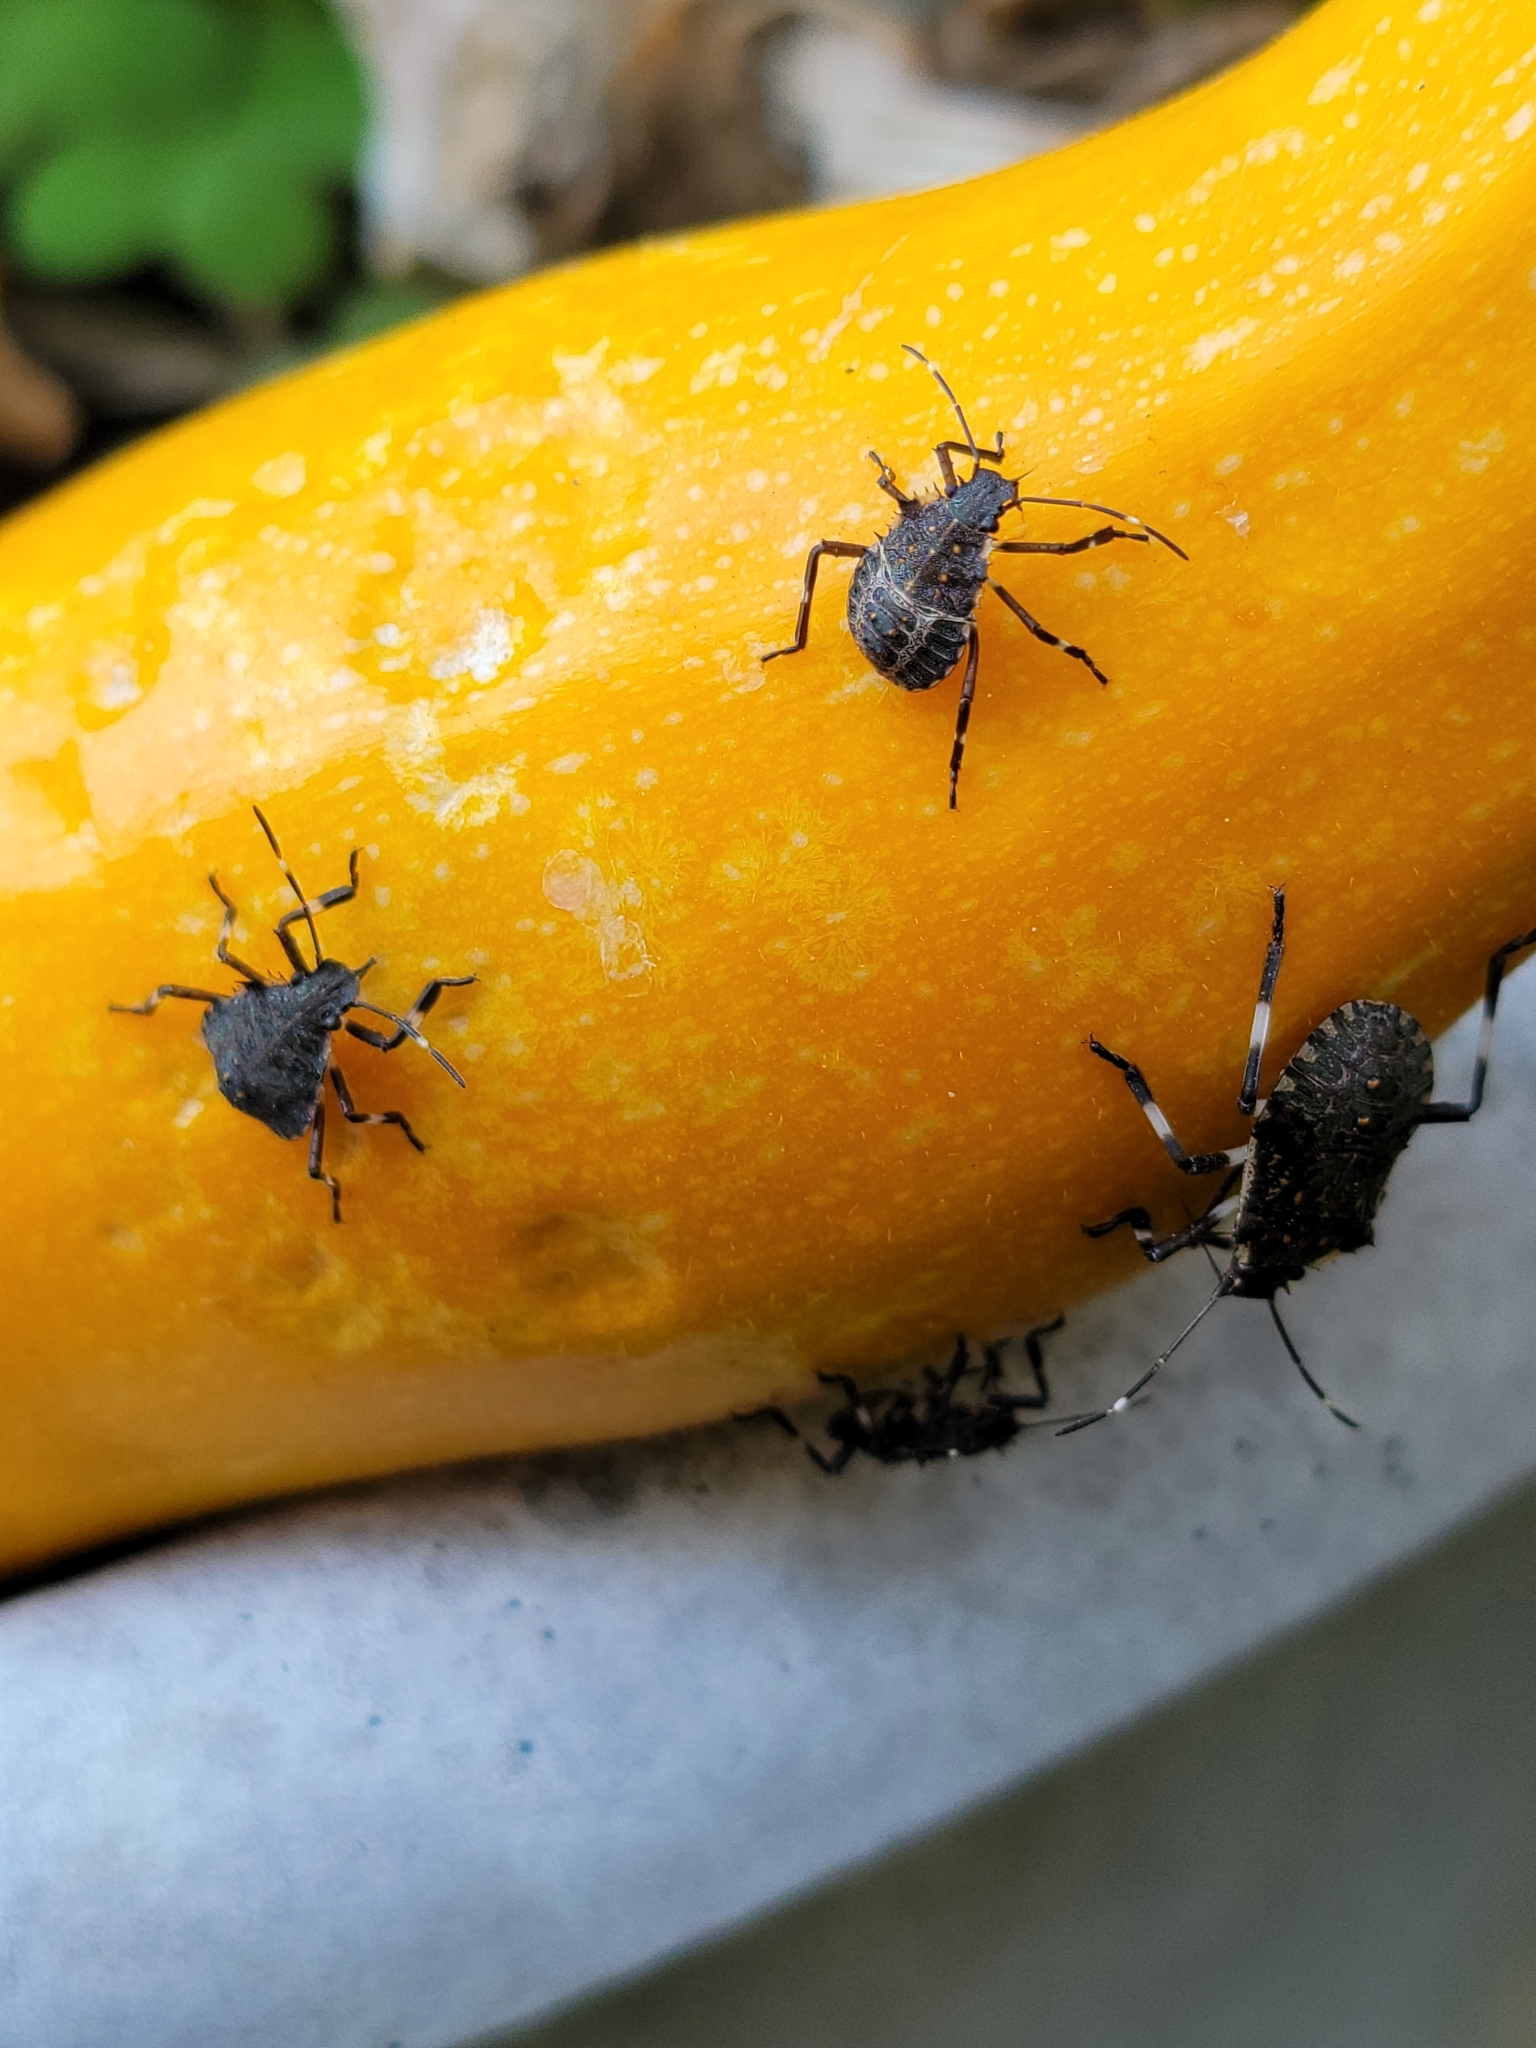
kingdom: Animalia
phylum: Arthropoda
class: Insecta
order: Hemiptera
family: Pentatomidae
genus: Halyomorpha
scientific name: Halyomorpha halys
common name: Brown marmorated stink bug
